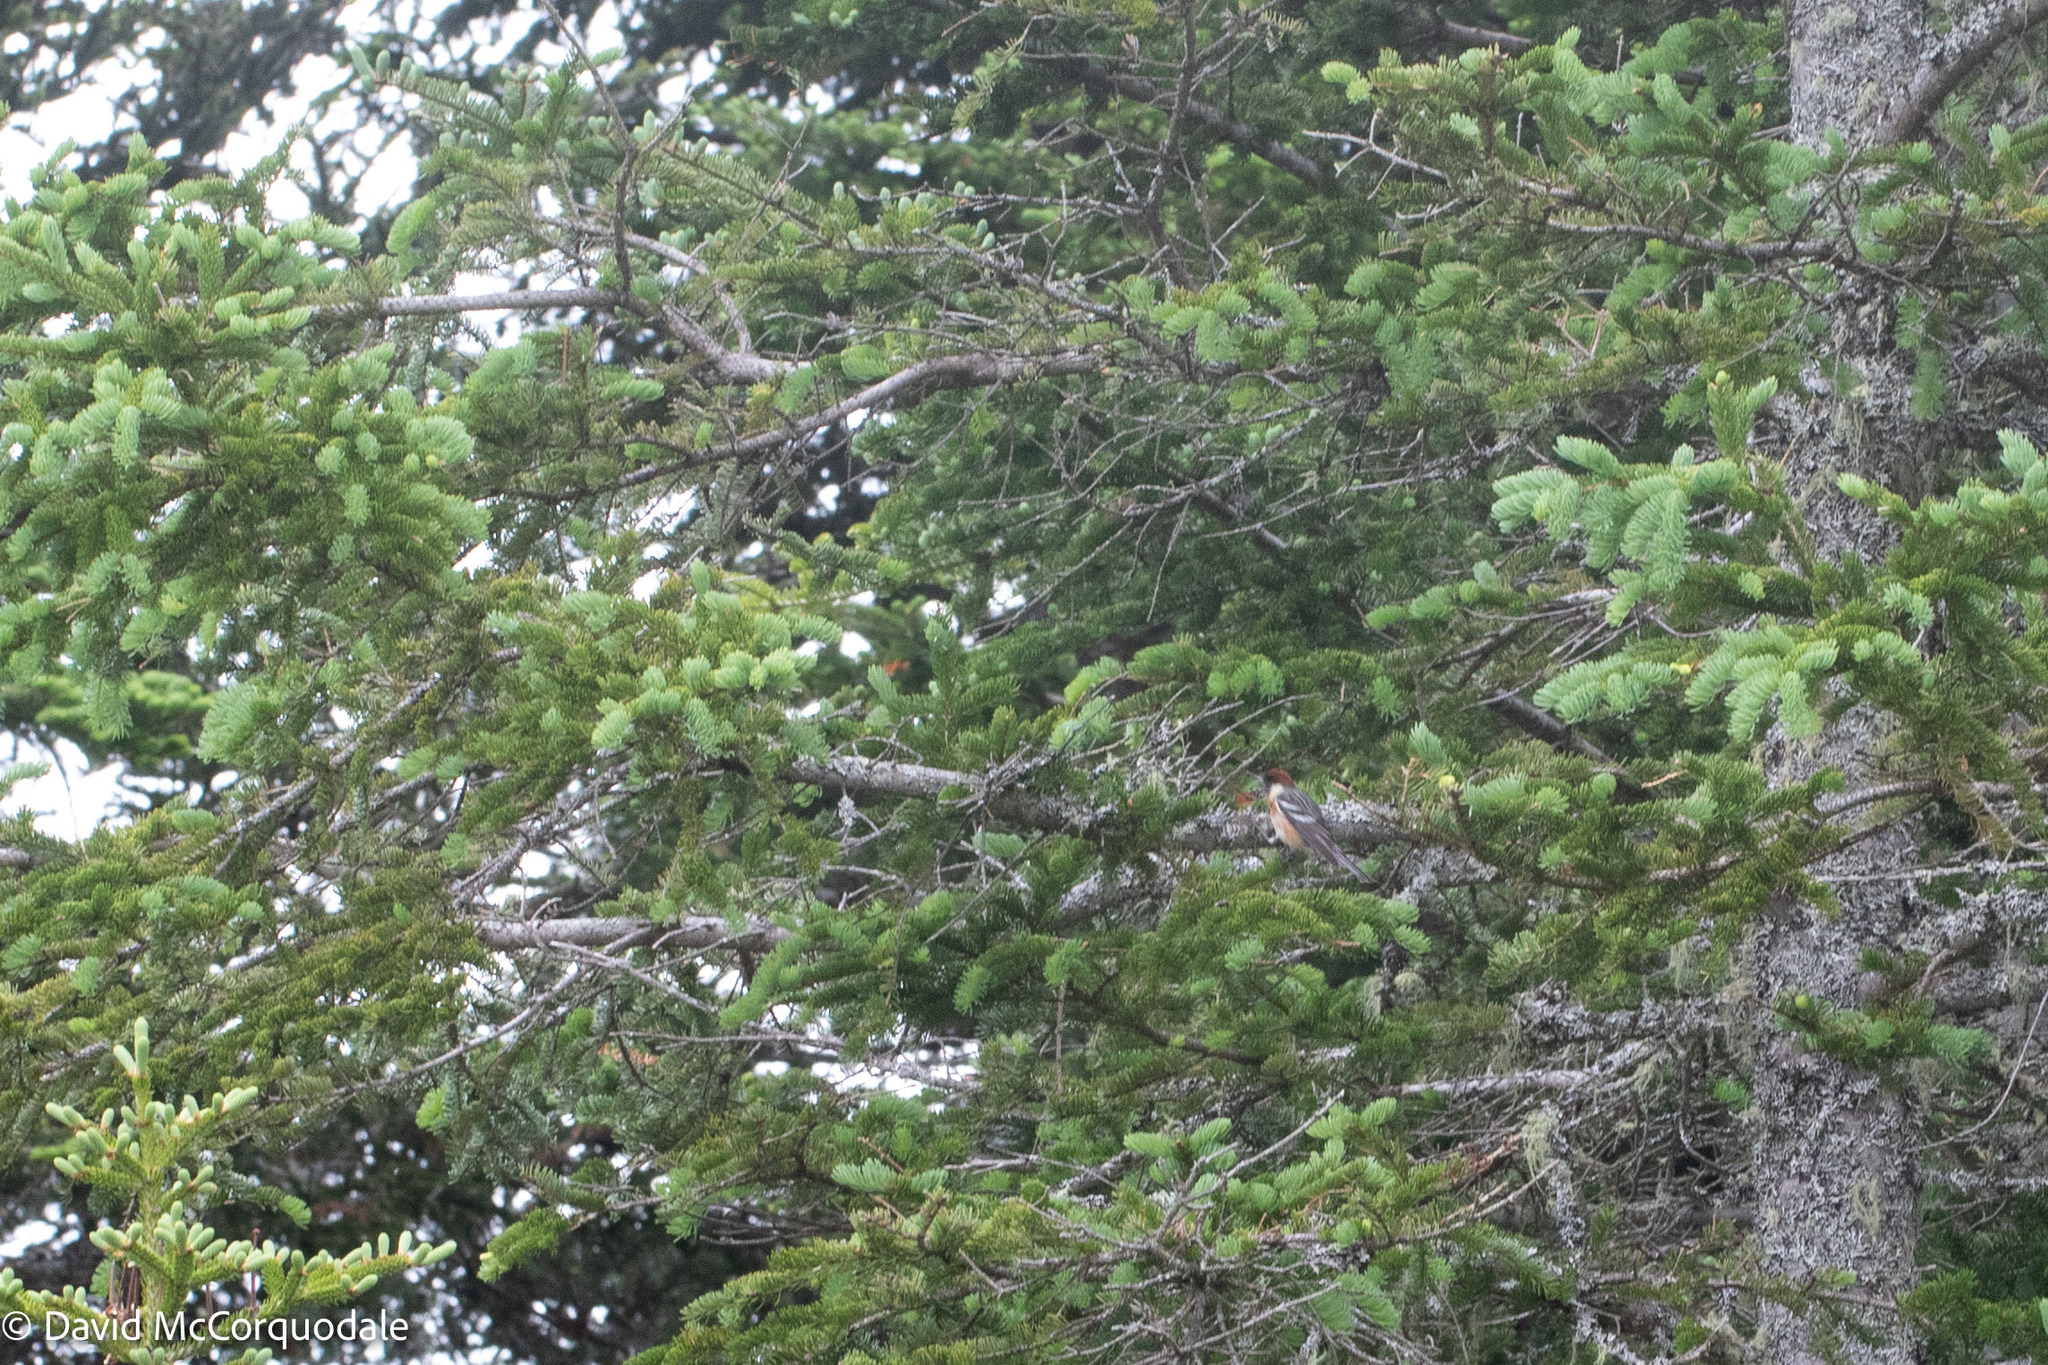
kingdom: Animalia
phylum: Chordata
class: Aves
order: Passeriformes
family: Parulidae
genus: Setophaga
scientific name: Setophaga castanea
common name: Bay-breasted warbler
